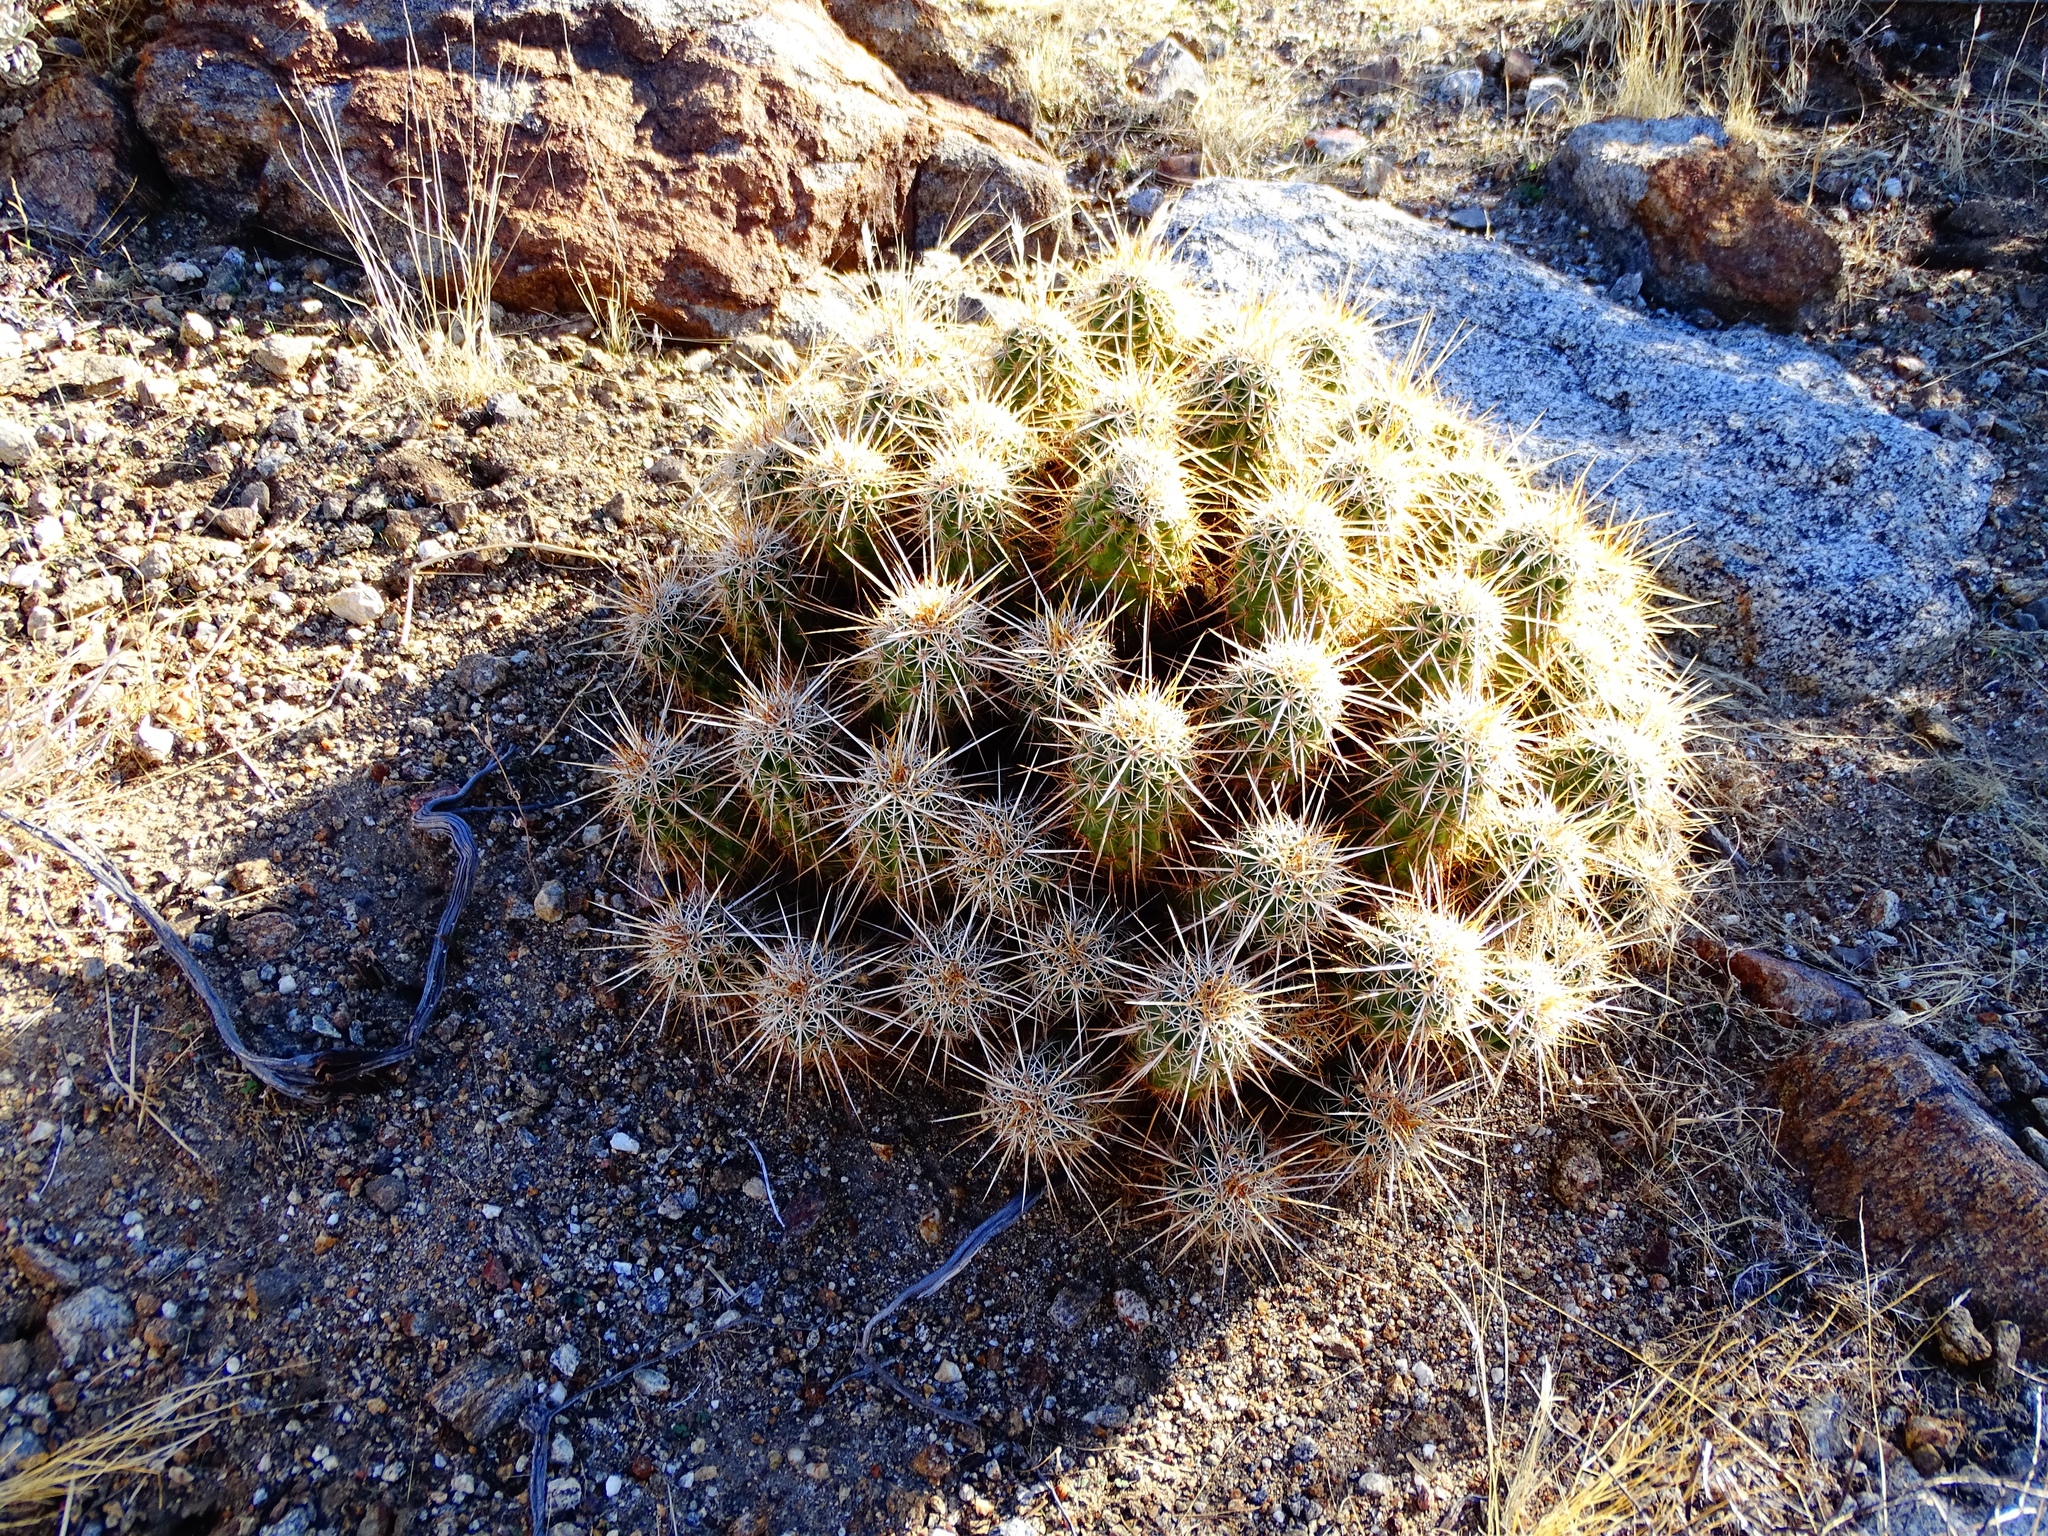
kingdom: Plantae
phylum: Tracheophyta
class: Magnoliopsida
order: Caryophyllales
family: Cactaceae
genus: Echinocereus
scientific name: Echinocereus engelmannii
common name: Engelmann's hedgehog cactus
